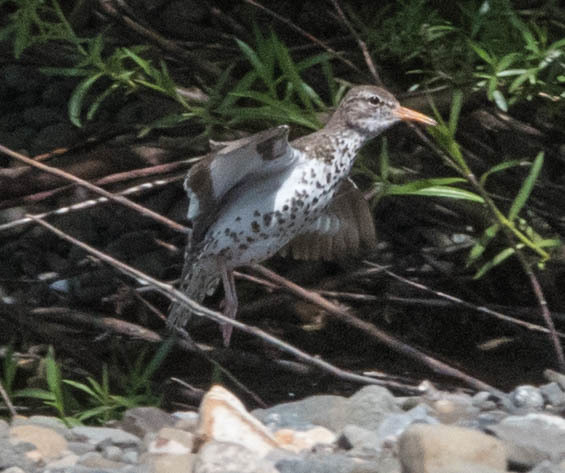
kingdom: Animalia
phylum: Chordata
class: Aves
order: Charadriiformes
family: Scolopacidae
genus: Actitis
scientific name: Actitis macularius
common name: Spotted sandpiper
